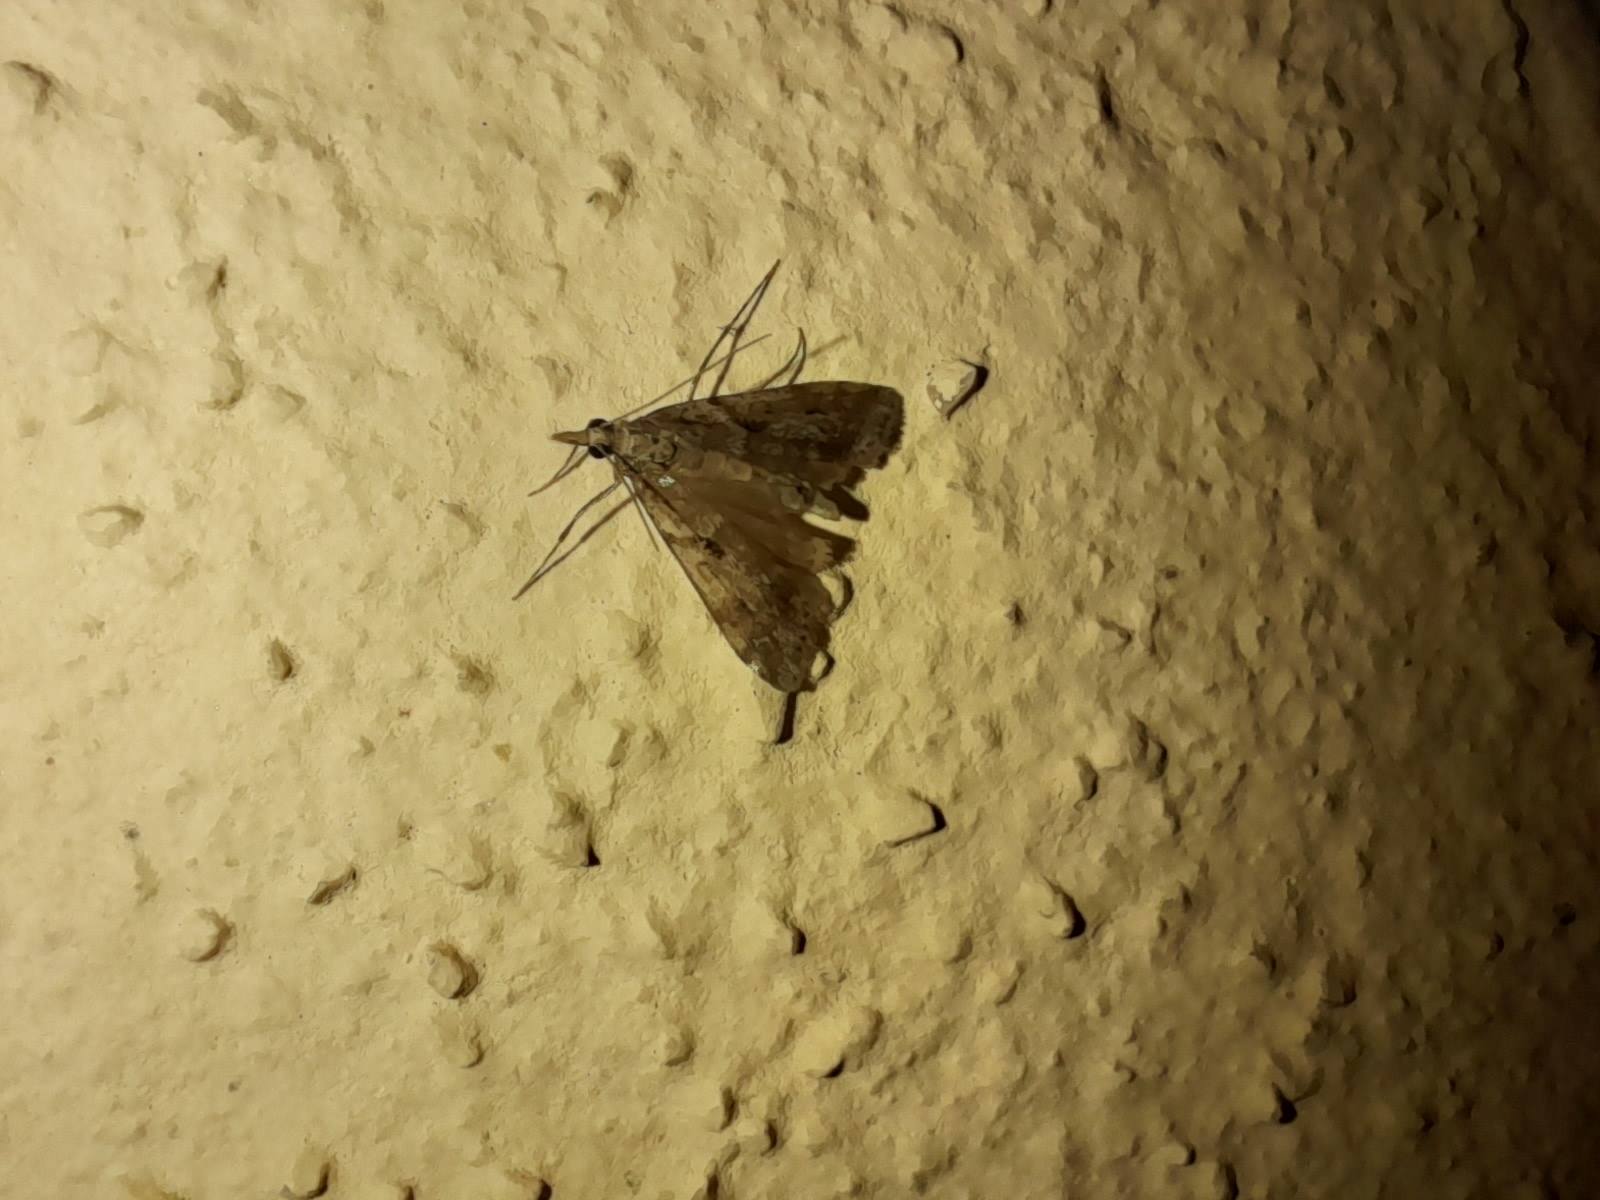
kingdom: Animalia
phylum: Arthropoda
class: Insecta
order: Lepidoptera
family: Crambidae
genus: Eudonia
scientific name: Eudonia angustea
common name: Narrow-winged grey
